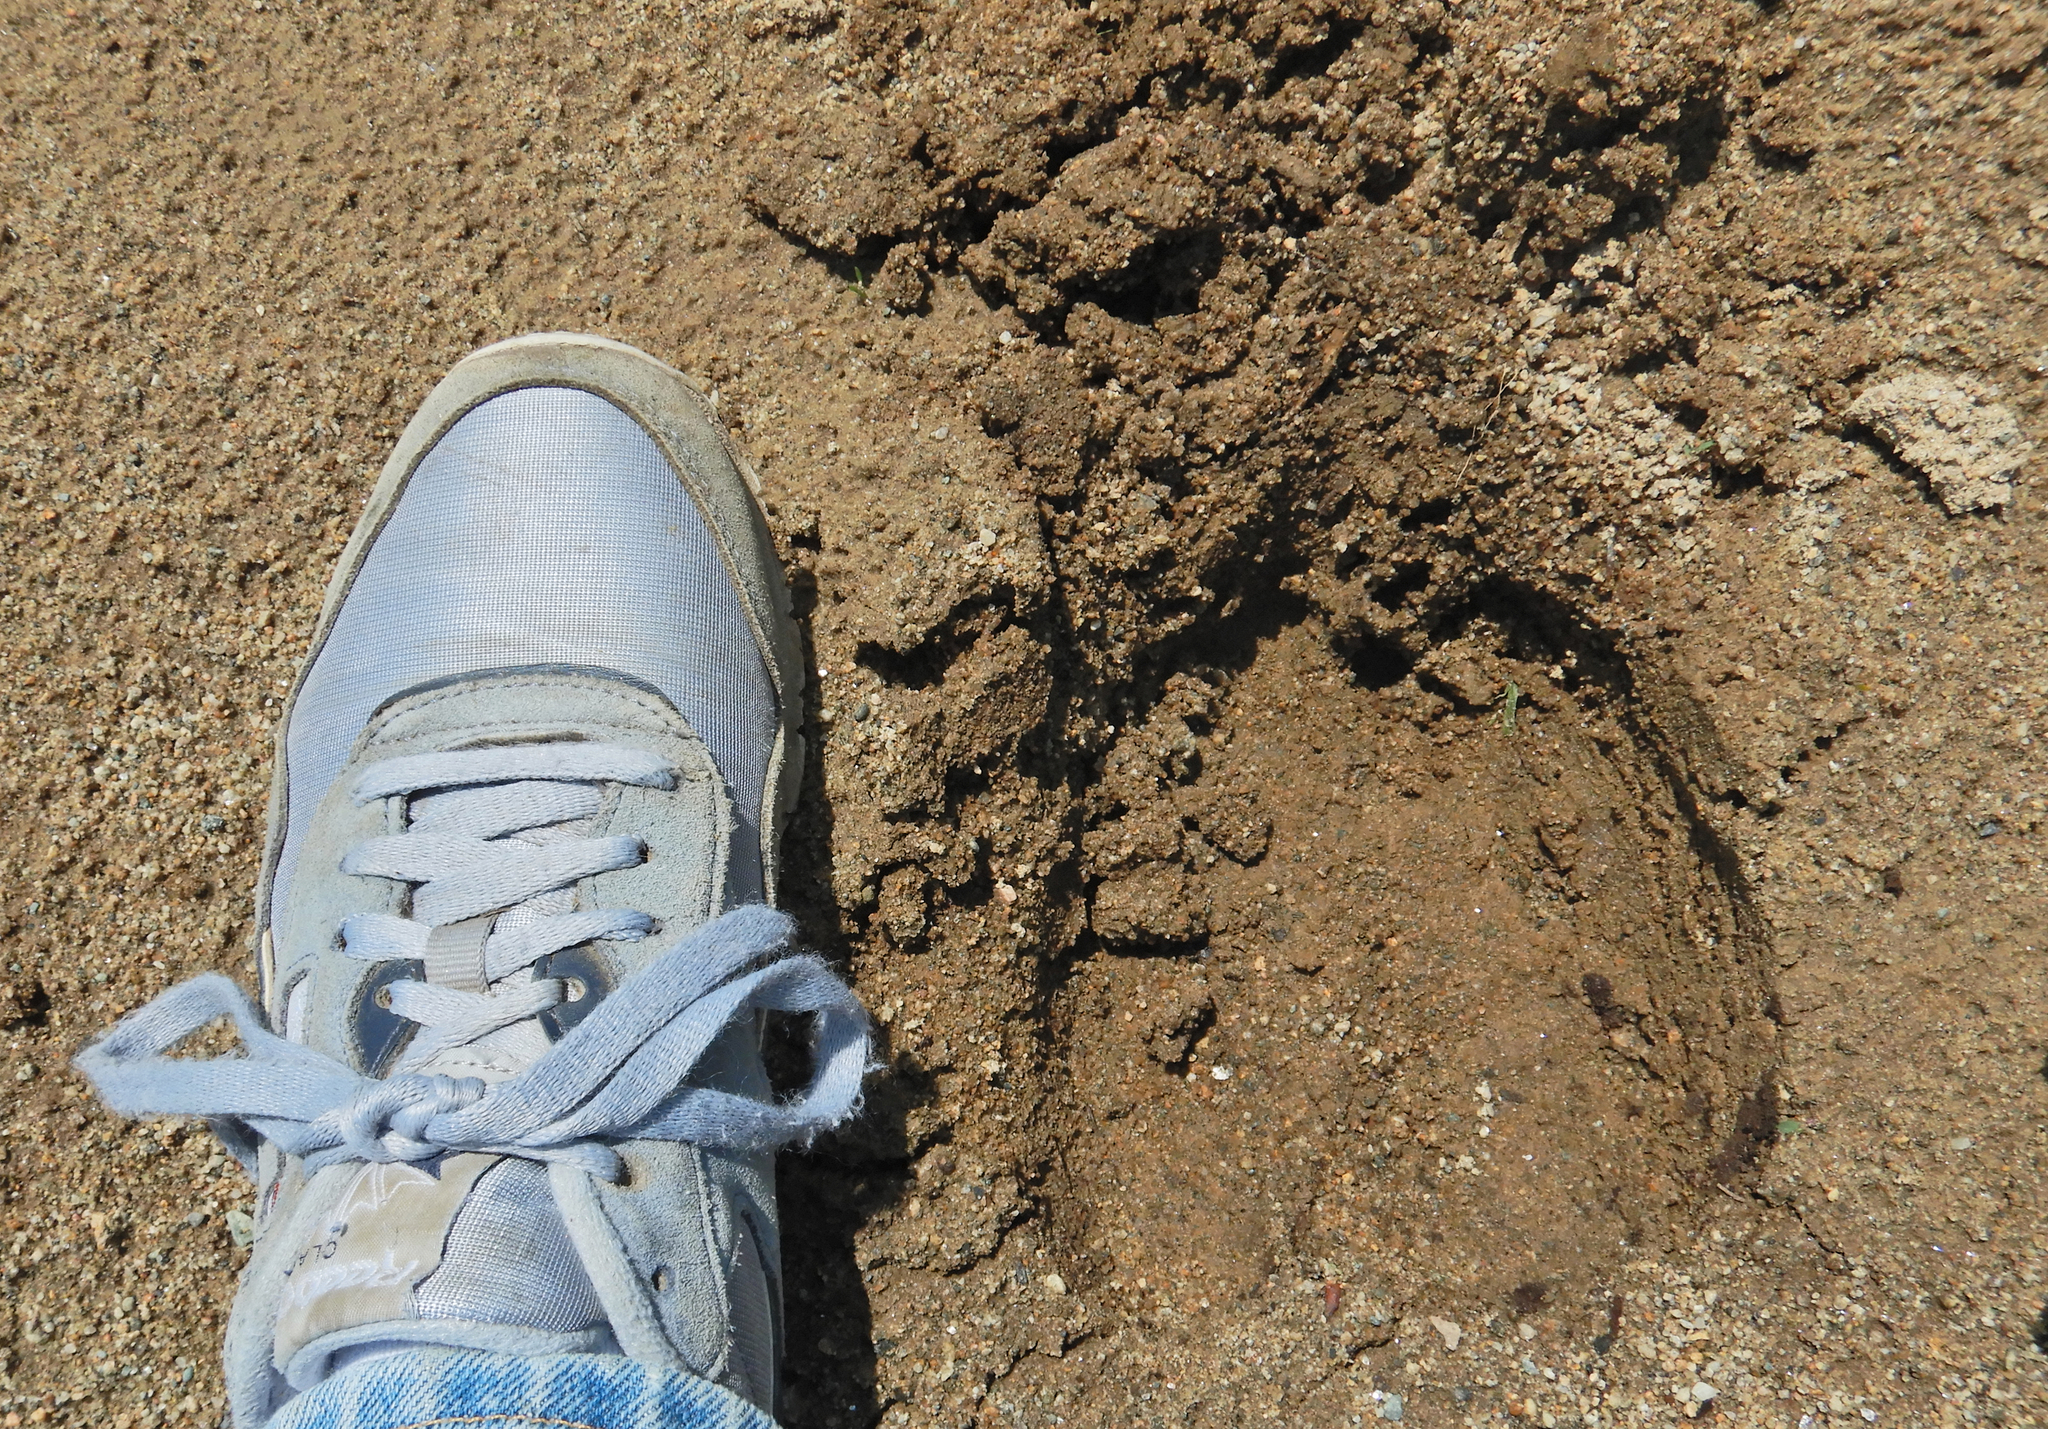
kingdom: Animalia
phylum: Chordata
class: Mammalia
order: Artiodactyla
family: Cervidae
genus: Alces
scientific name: Alces alces
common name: Moose
